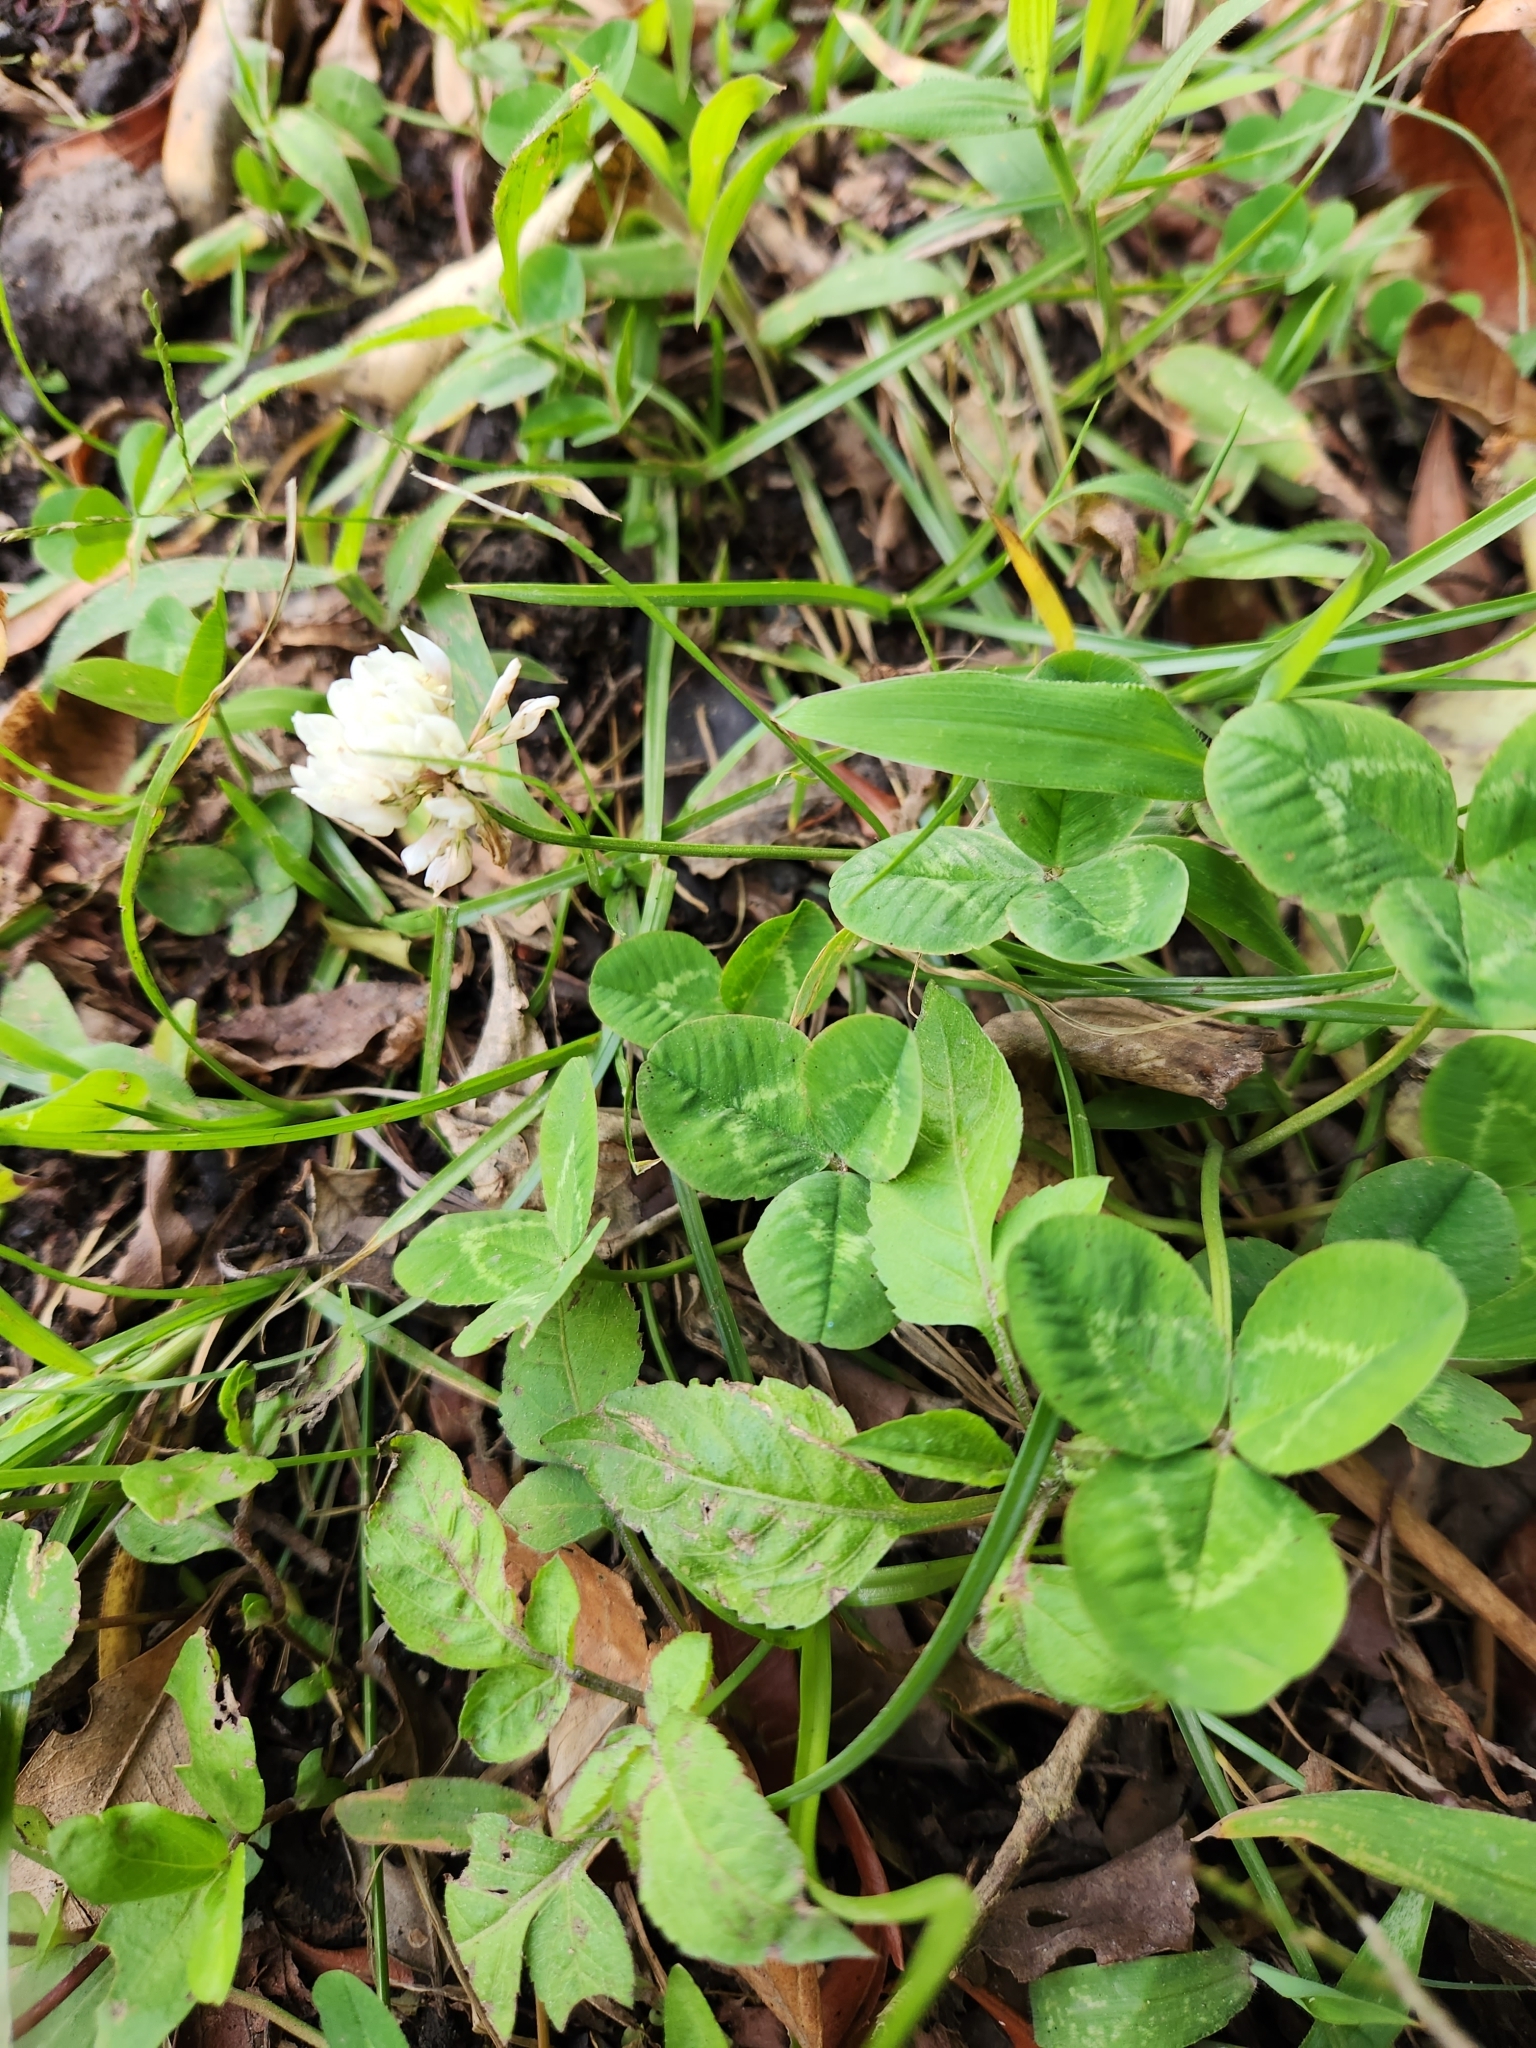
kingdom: Plantae
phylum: Tracheophyta
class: Magnoliopsida
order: Fabales
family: Fabaceae
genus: Trifolium
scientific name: Trifolium repens
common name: White clover
